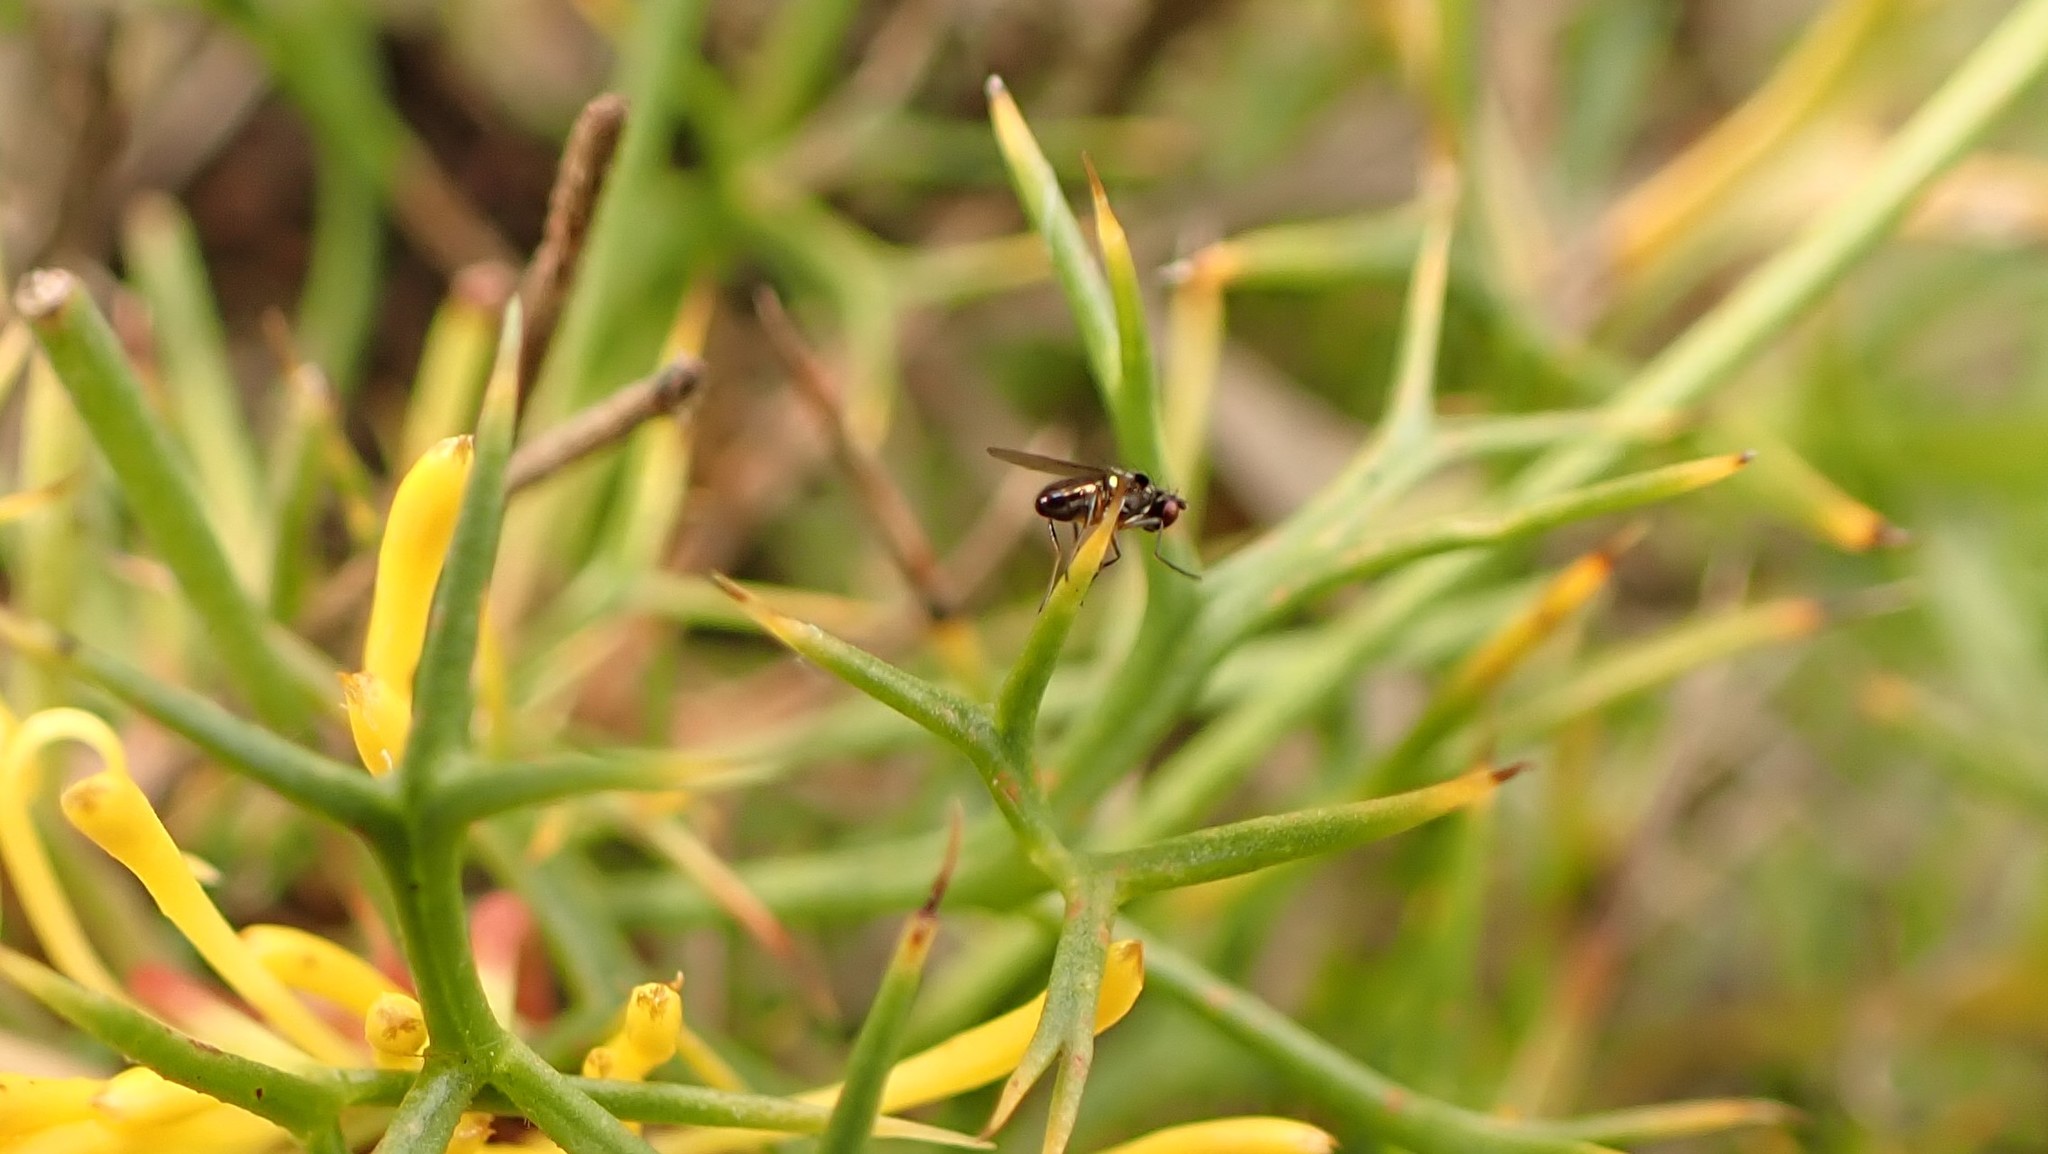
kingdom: Animalia
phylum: Arthropoda
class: Insecta
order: Diptera
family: Ephydridae
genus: Hydrellia
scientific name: Hydrellia tritici
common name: Shore fly
